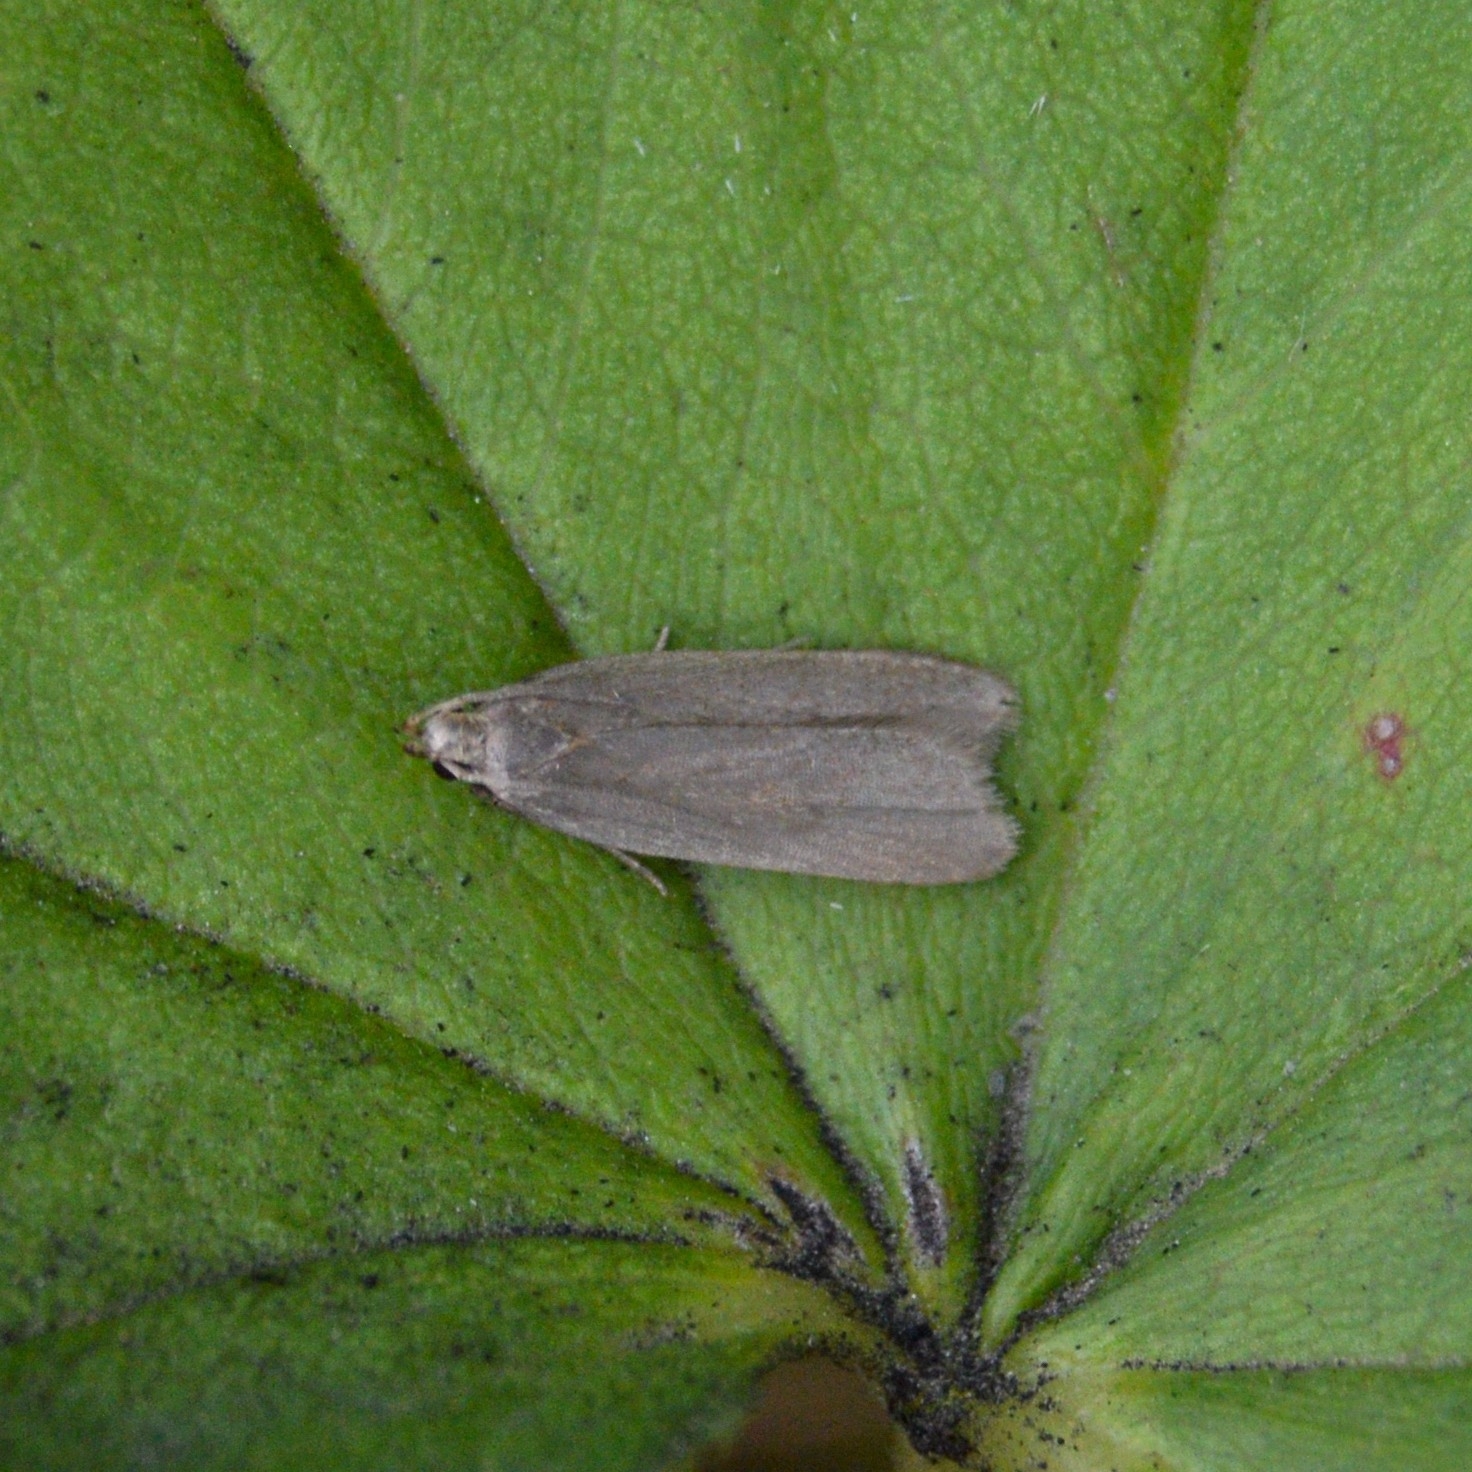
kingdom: Animalia
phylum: Arthropoda
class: Insecta
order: Lepidoptera
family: Gelechiidae
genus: Acompsia
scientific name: Acompsia cinerella
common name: Ash-coloured sober
